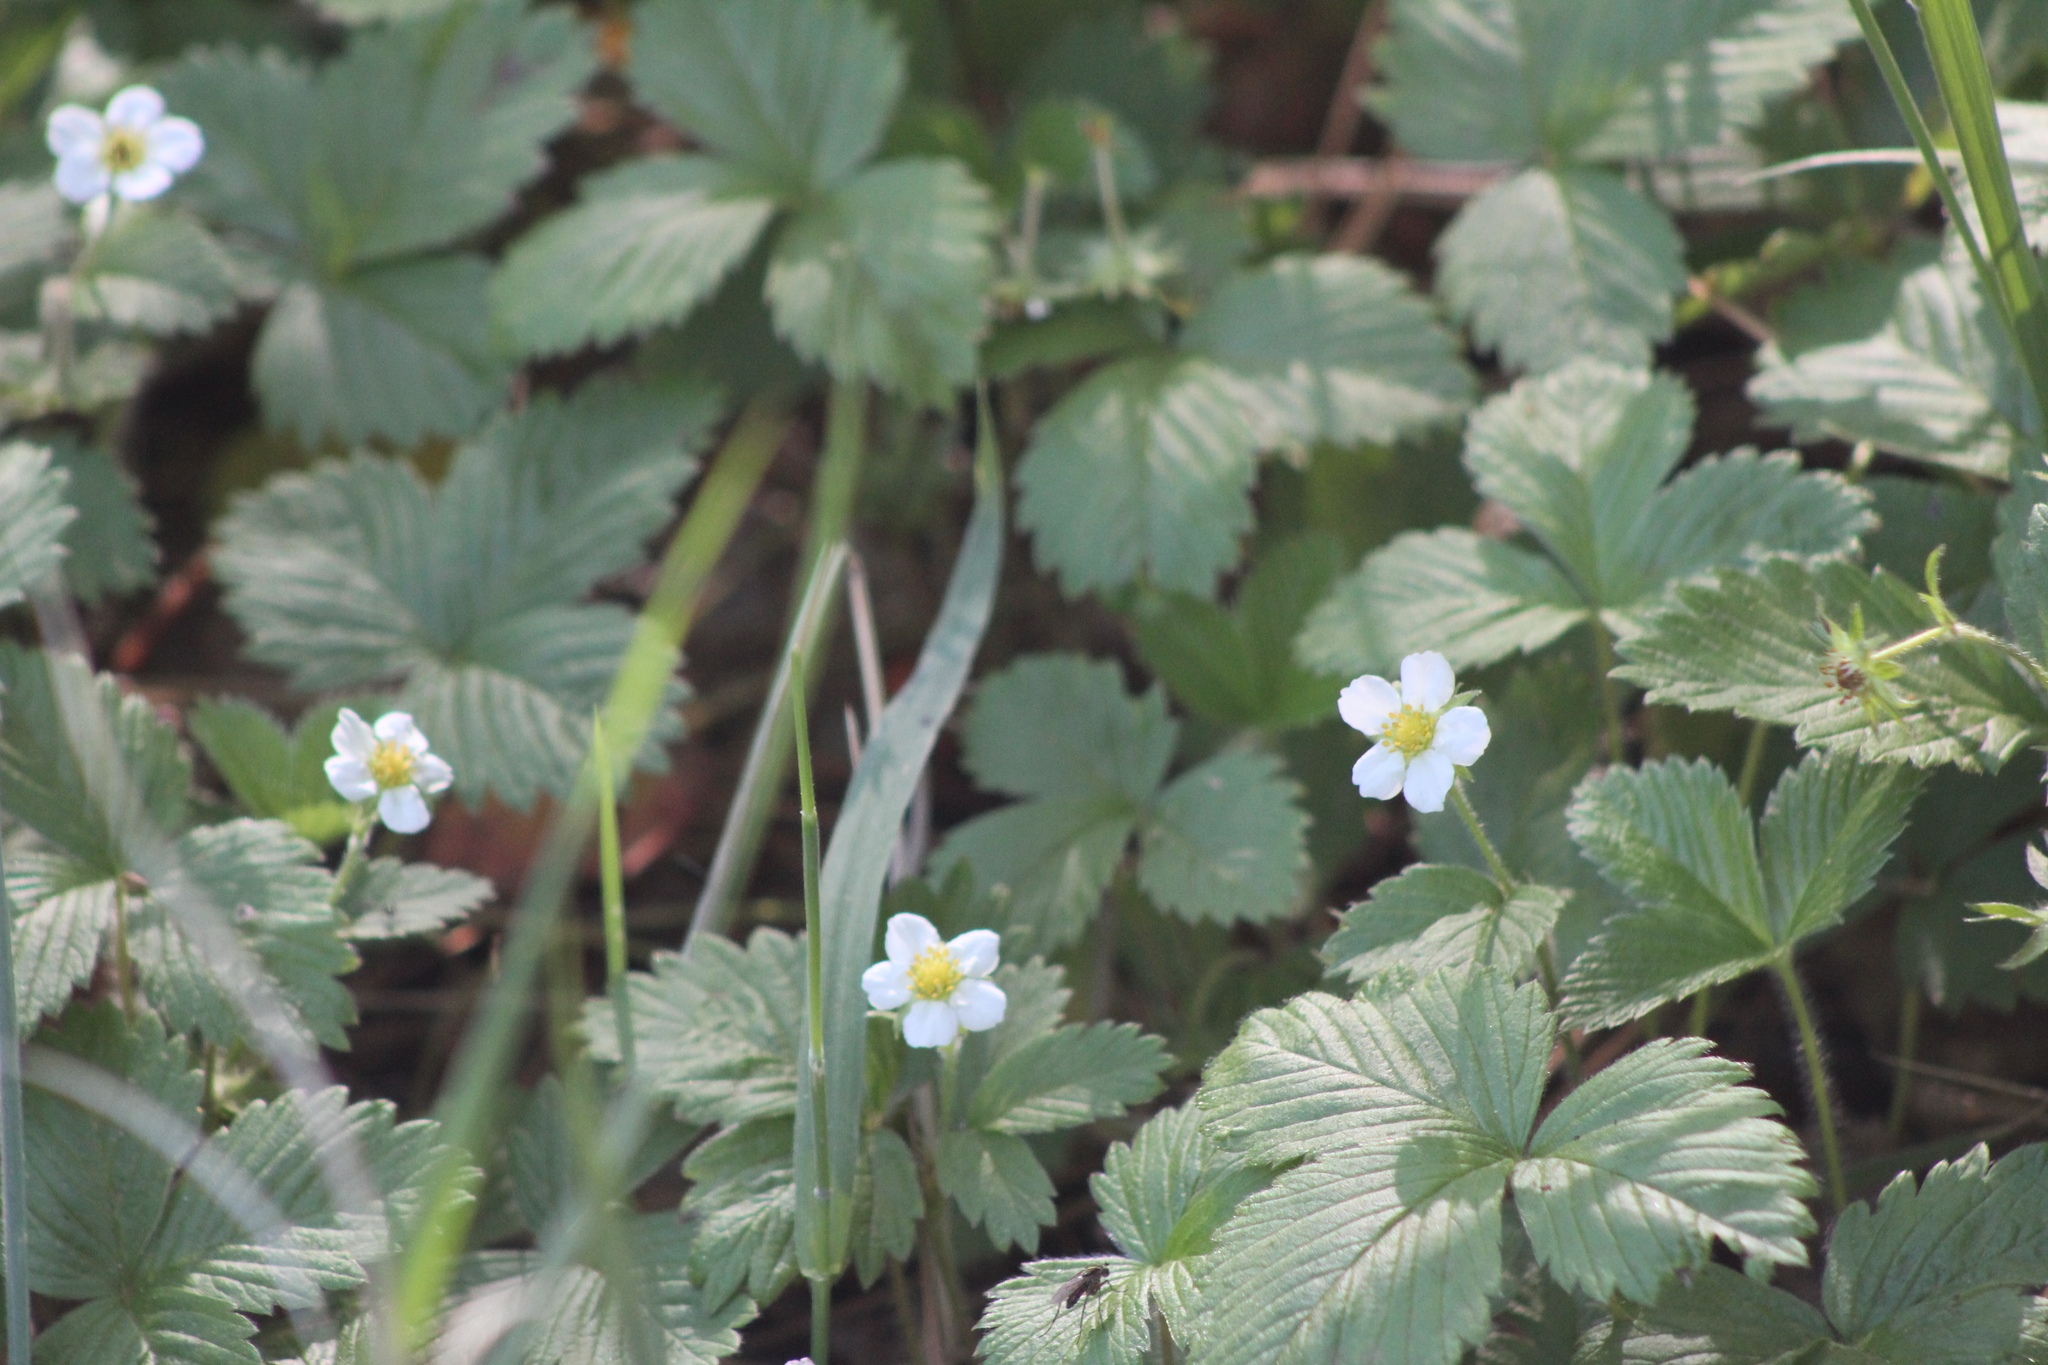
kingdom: Plantae
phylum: Tracheophyta
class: Magnoliopsida
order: Rosales
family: Rosaceae
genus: Fragaria
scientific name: Fragaria vesca
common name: Wild strawberry
